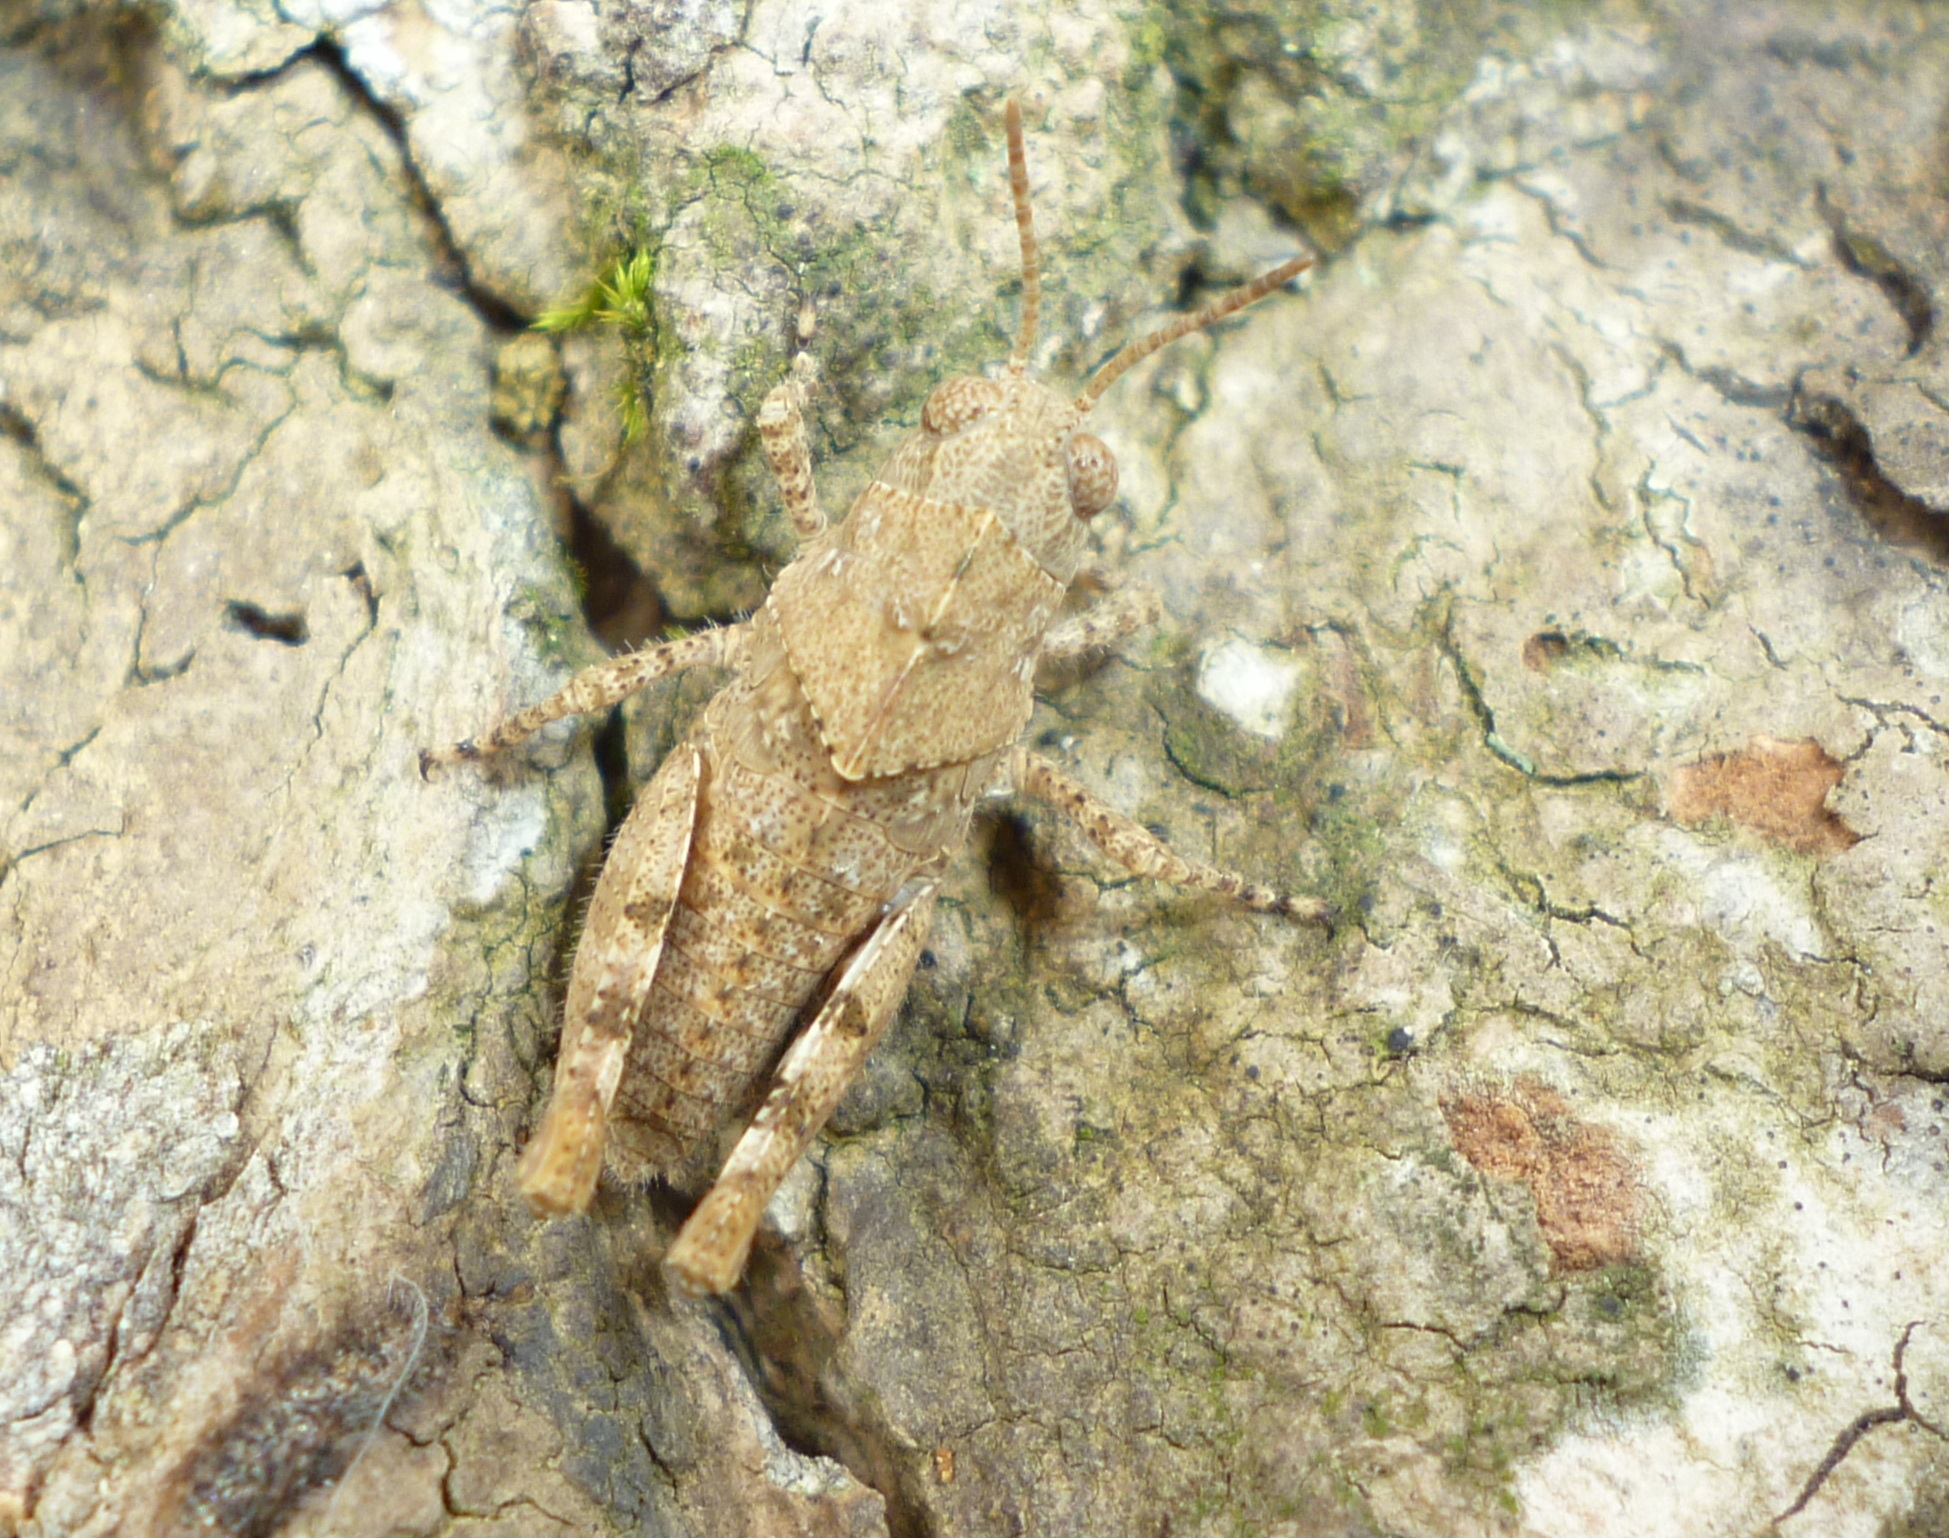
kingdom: Animalia
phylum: Arthropoda
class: Insecta
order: Orthoptera
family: Acrididae
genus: Dissosteira
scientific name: Dissosteira carolina
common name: Carolina grasshopper
